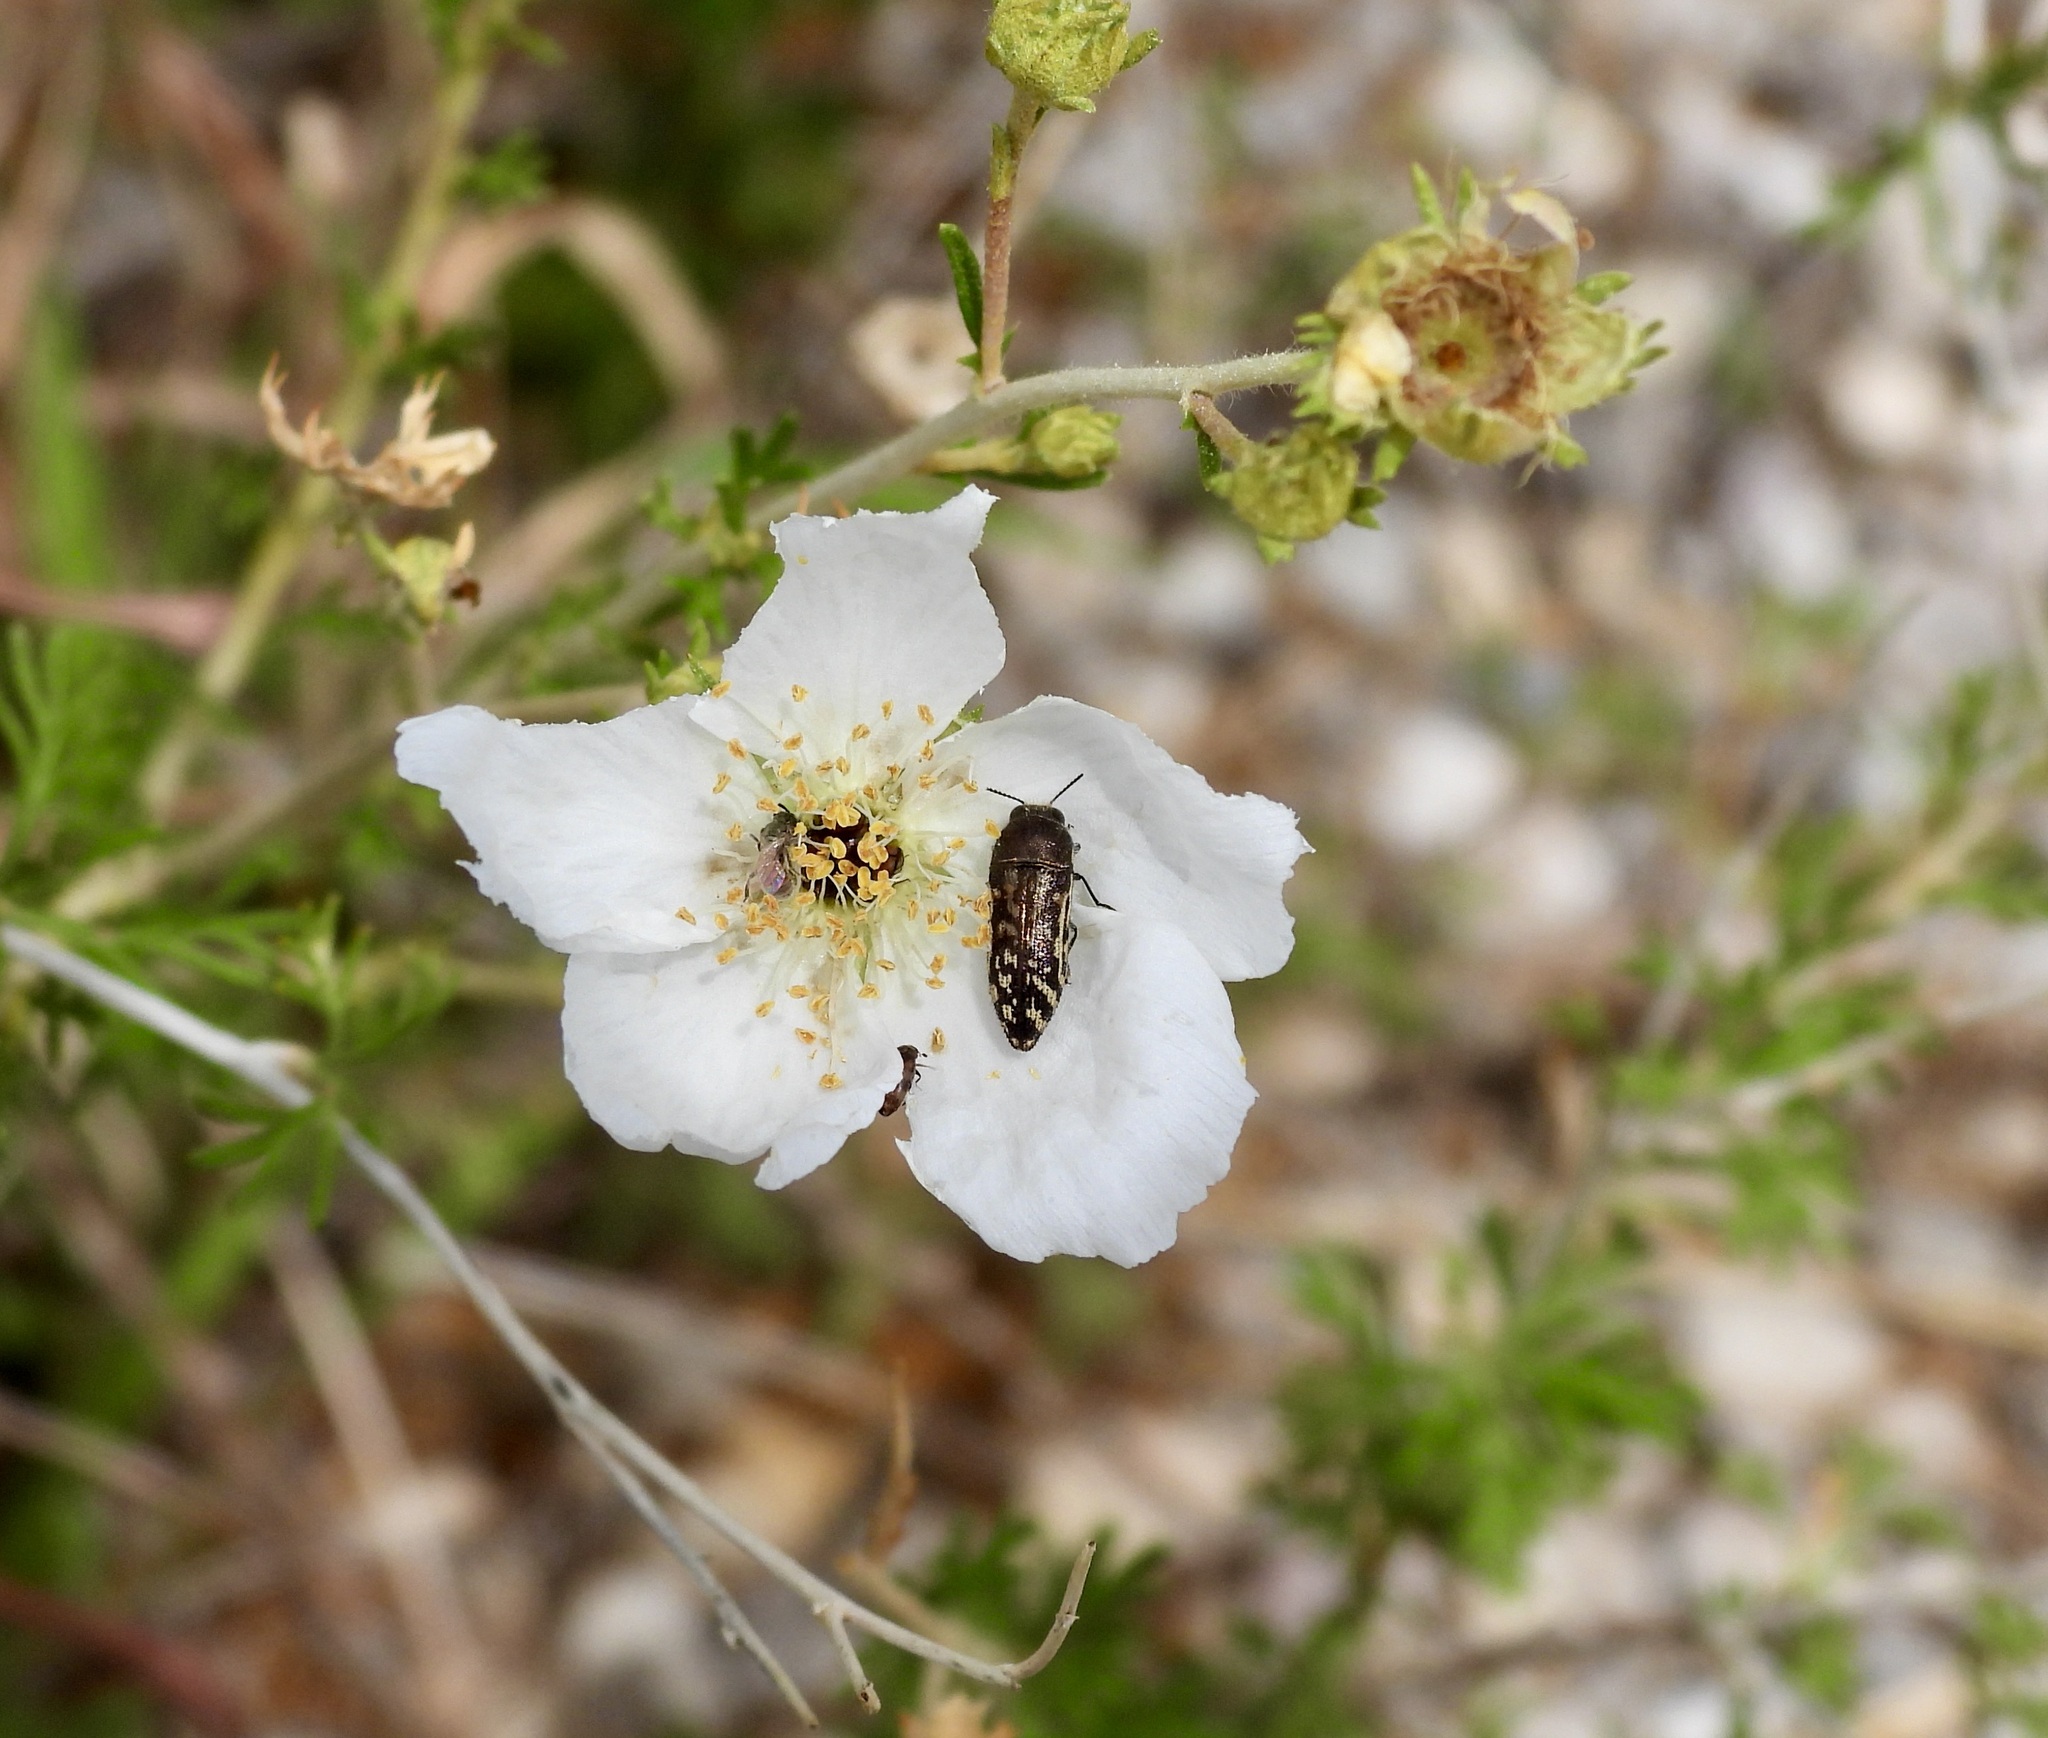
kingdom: Animalia
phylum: Arthropoda
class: Insecta
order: Coleoptera
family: Buprestidae
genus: Acmaeodera
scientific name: Acmaeodera mixta
